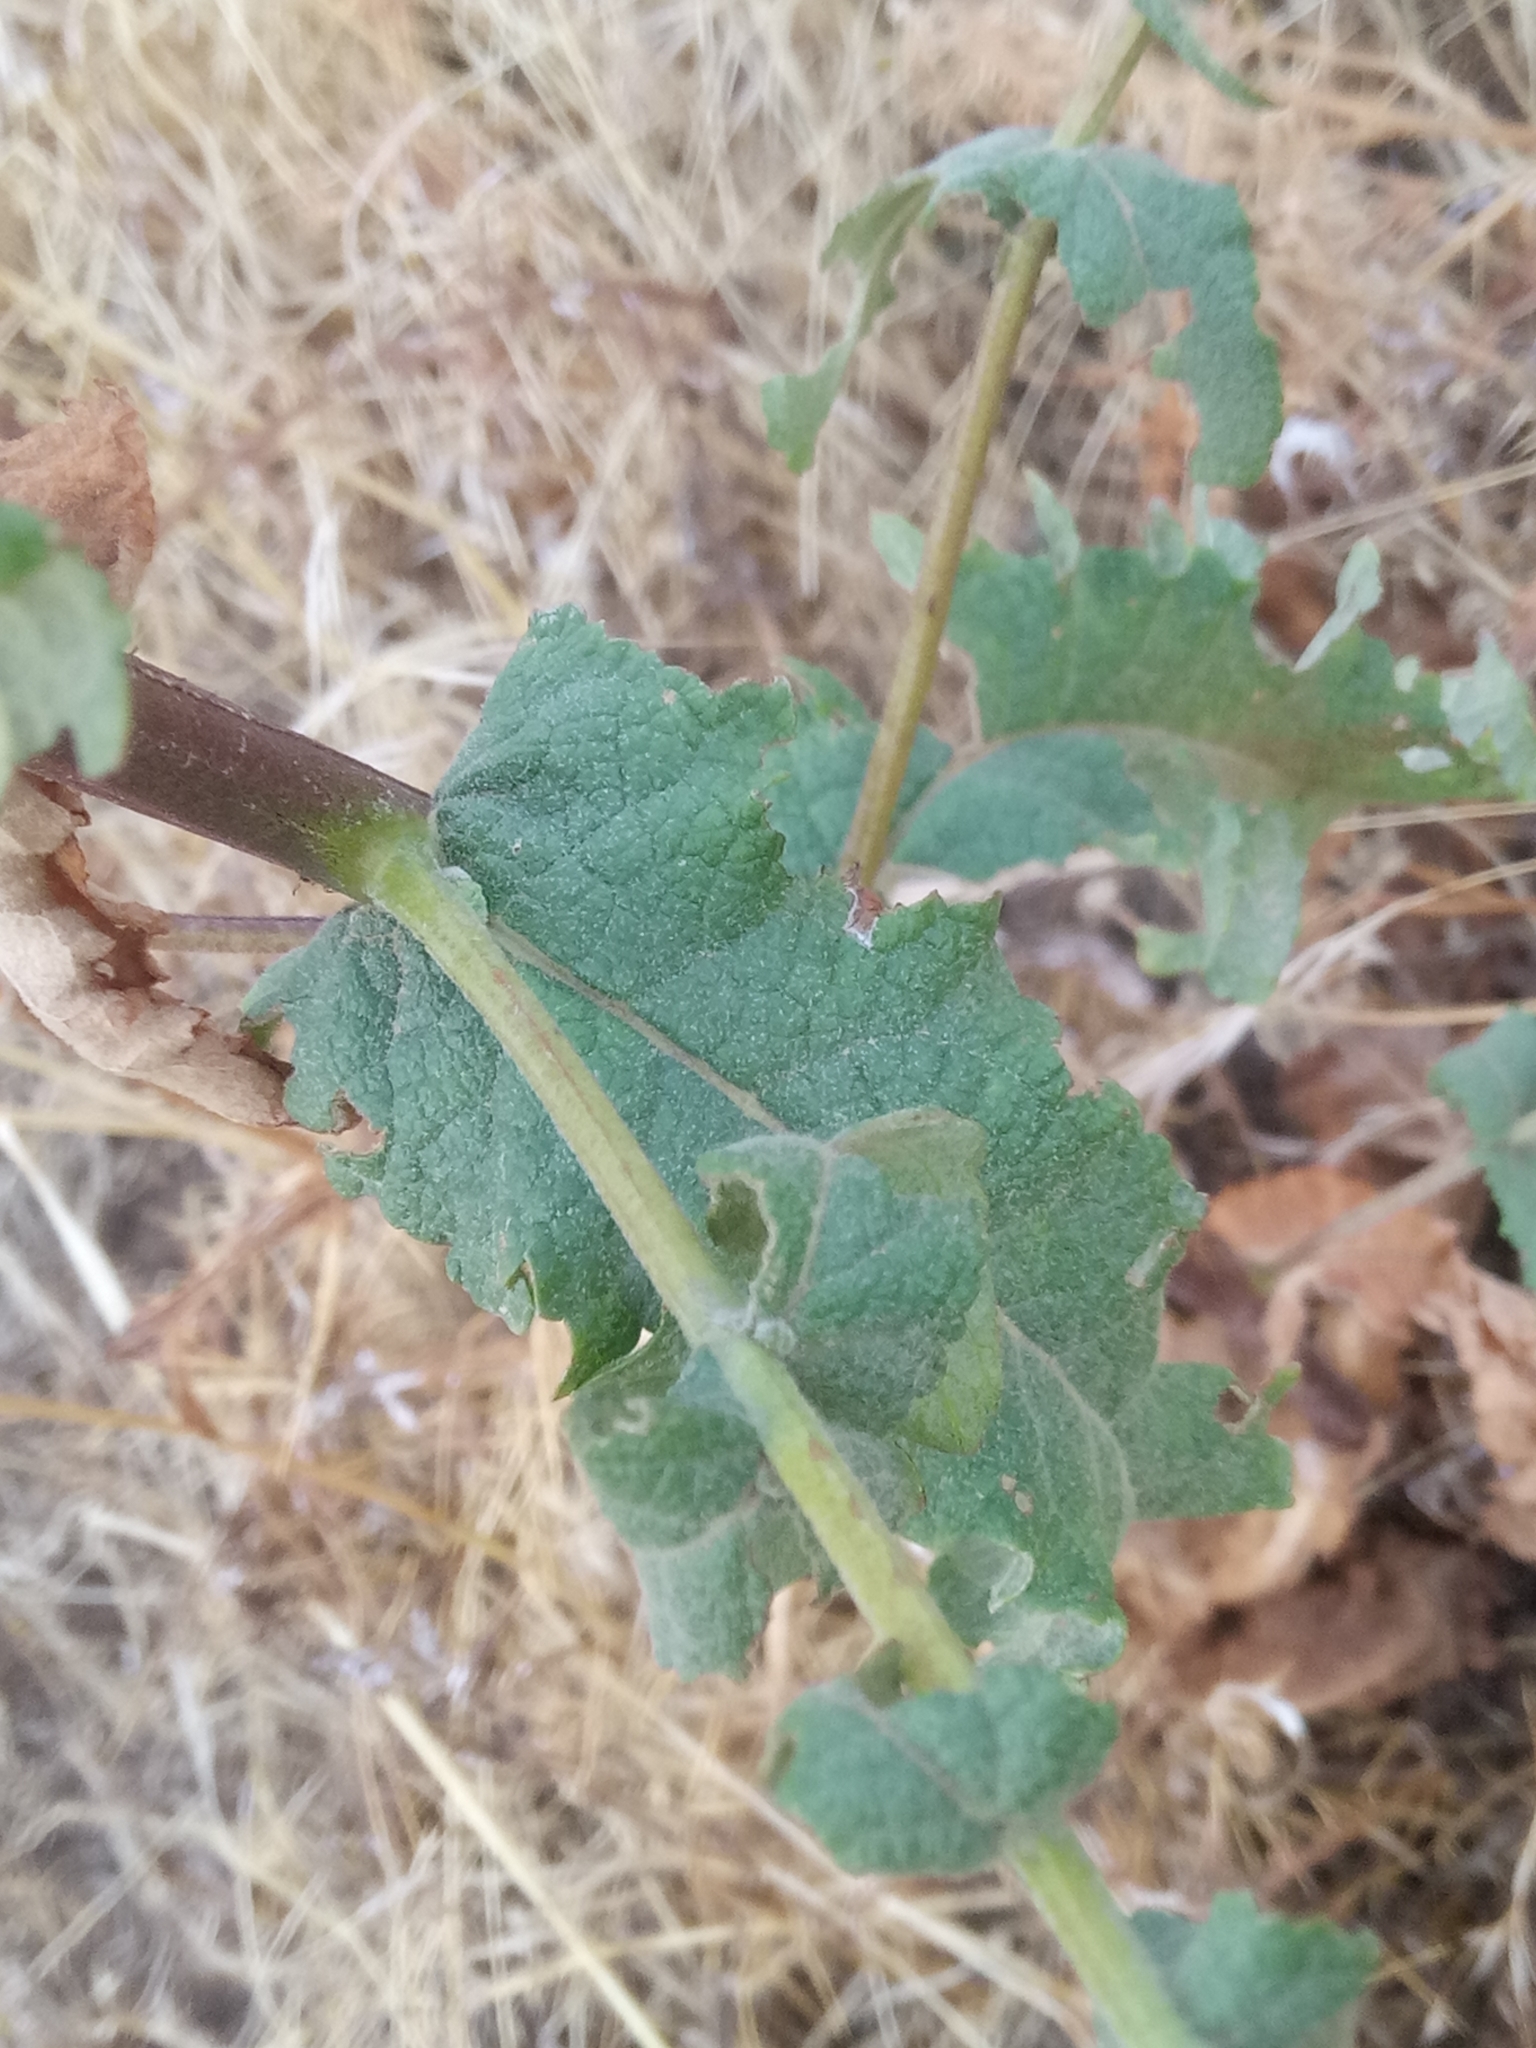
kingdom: Plantae
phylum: Tracheophyta
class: Magnoliopsida
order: Lamiales
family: Scrophulariaceae
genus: Verbascum
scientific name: Verbascum sinuatum
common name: Wavyleaf mullein
